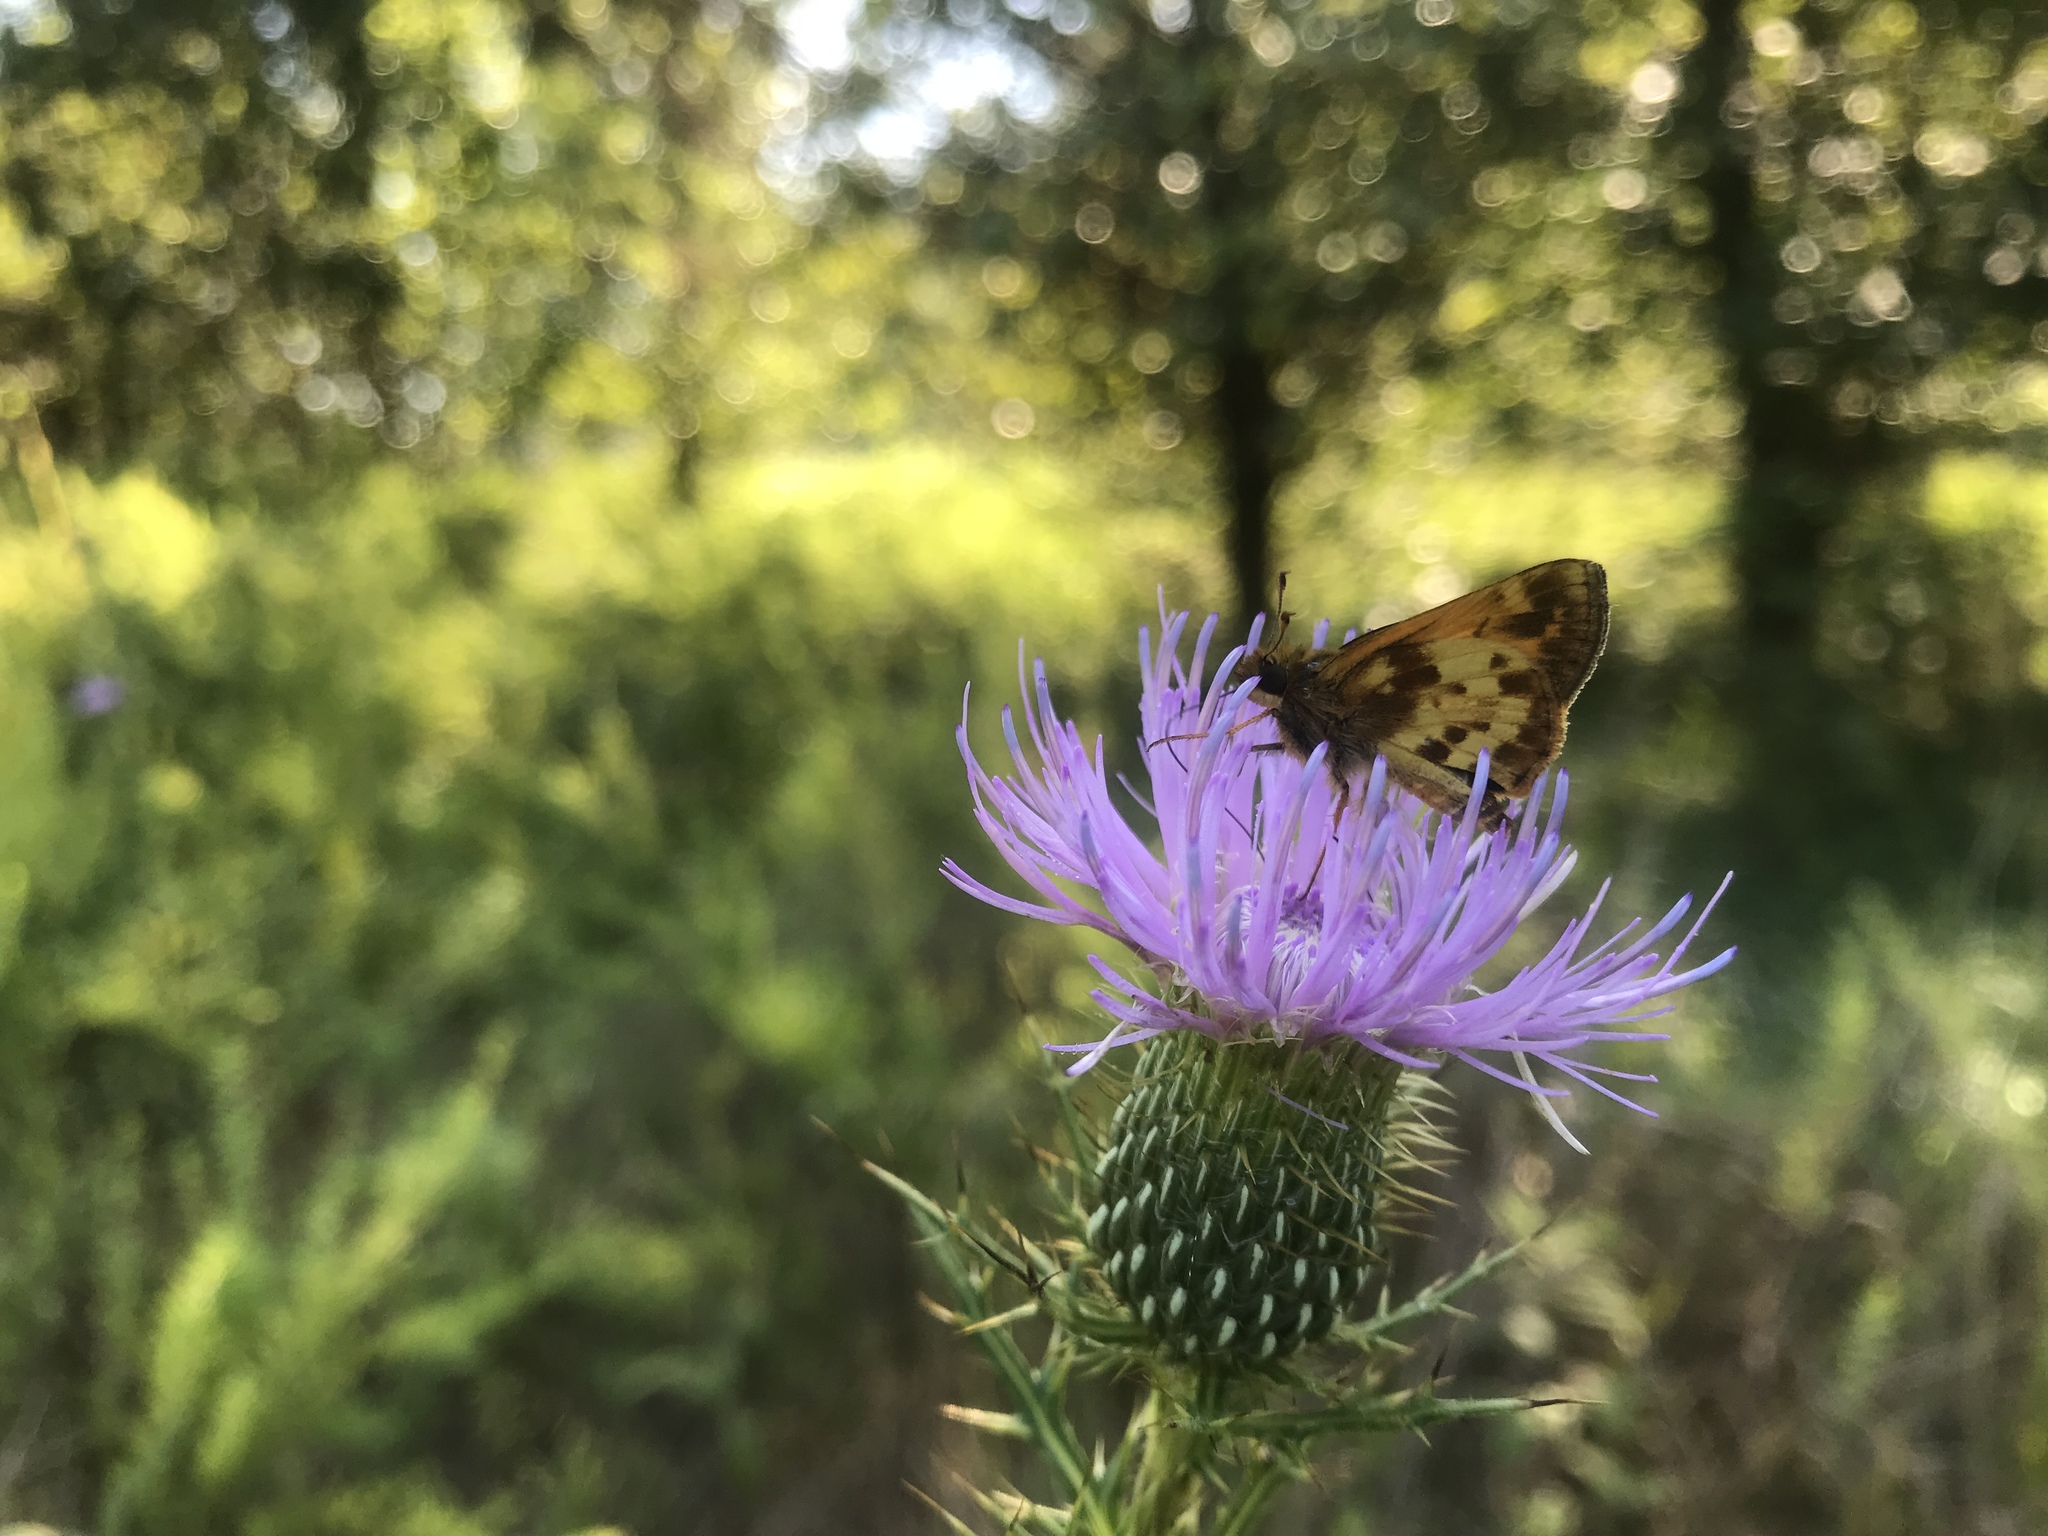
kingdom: Animalia
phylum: Arthropoda
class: Insecta
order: Lepidoptera
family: Hesperiidae
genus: Lon
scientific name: Lon zabulon
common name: Zabulon skipper
